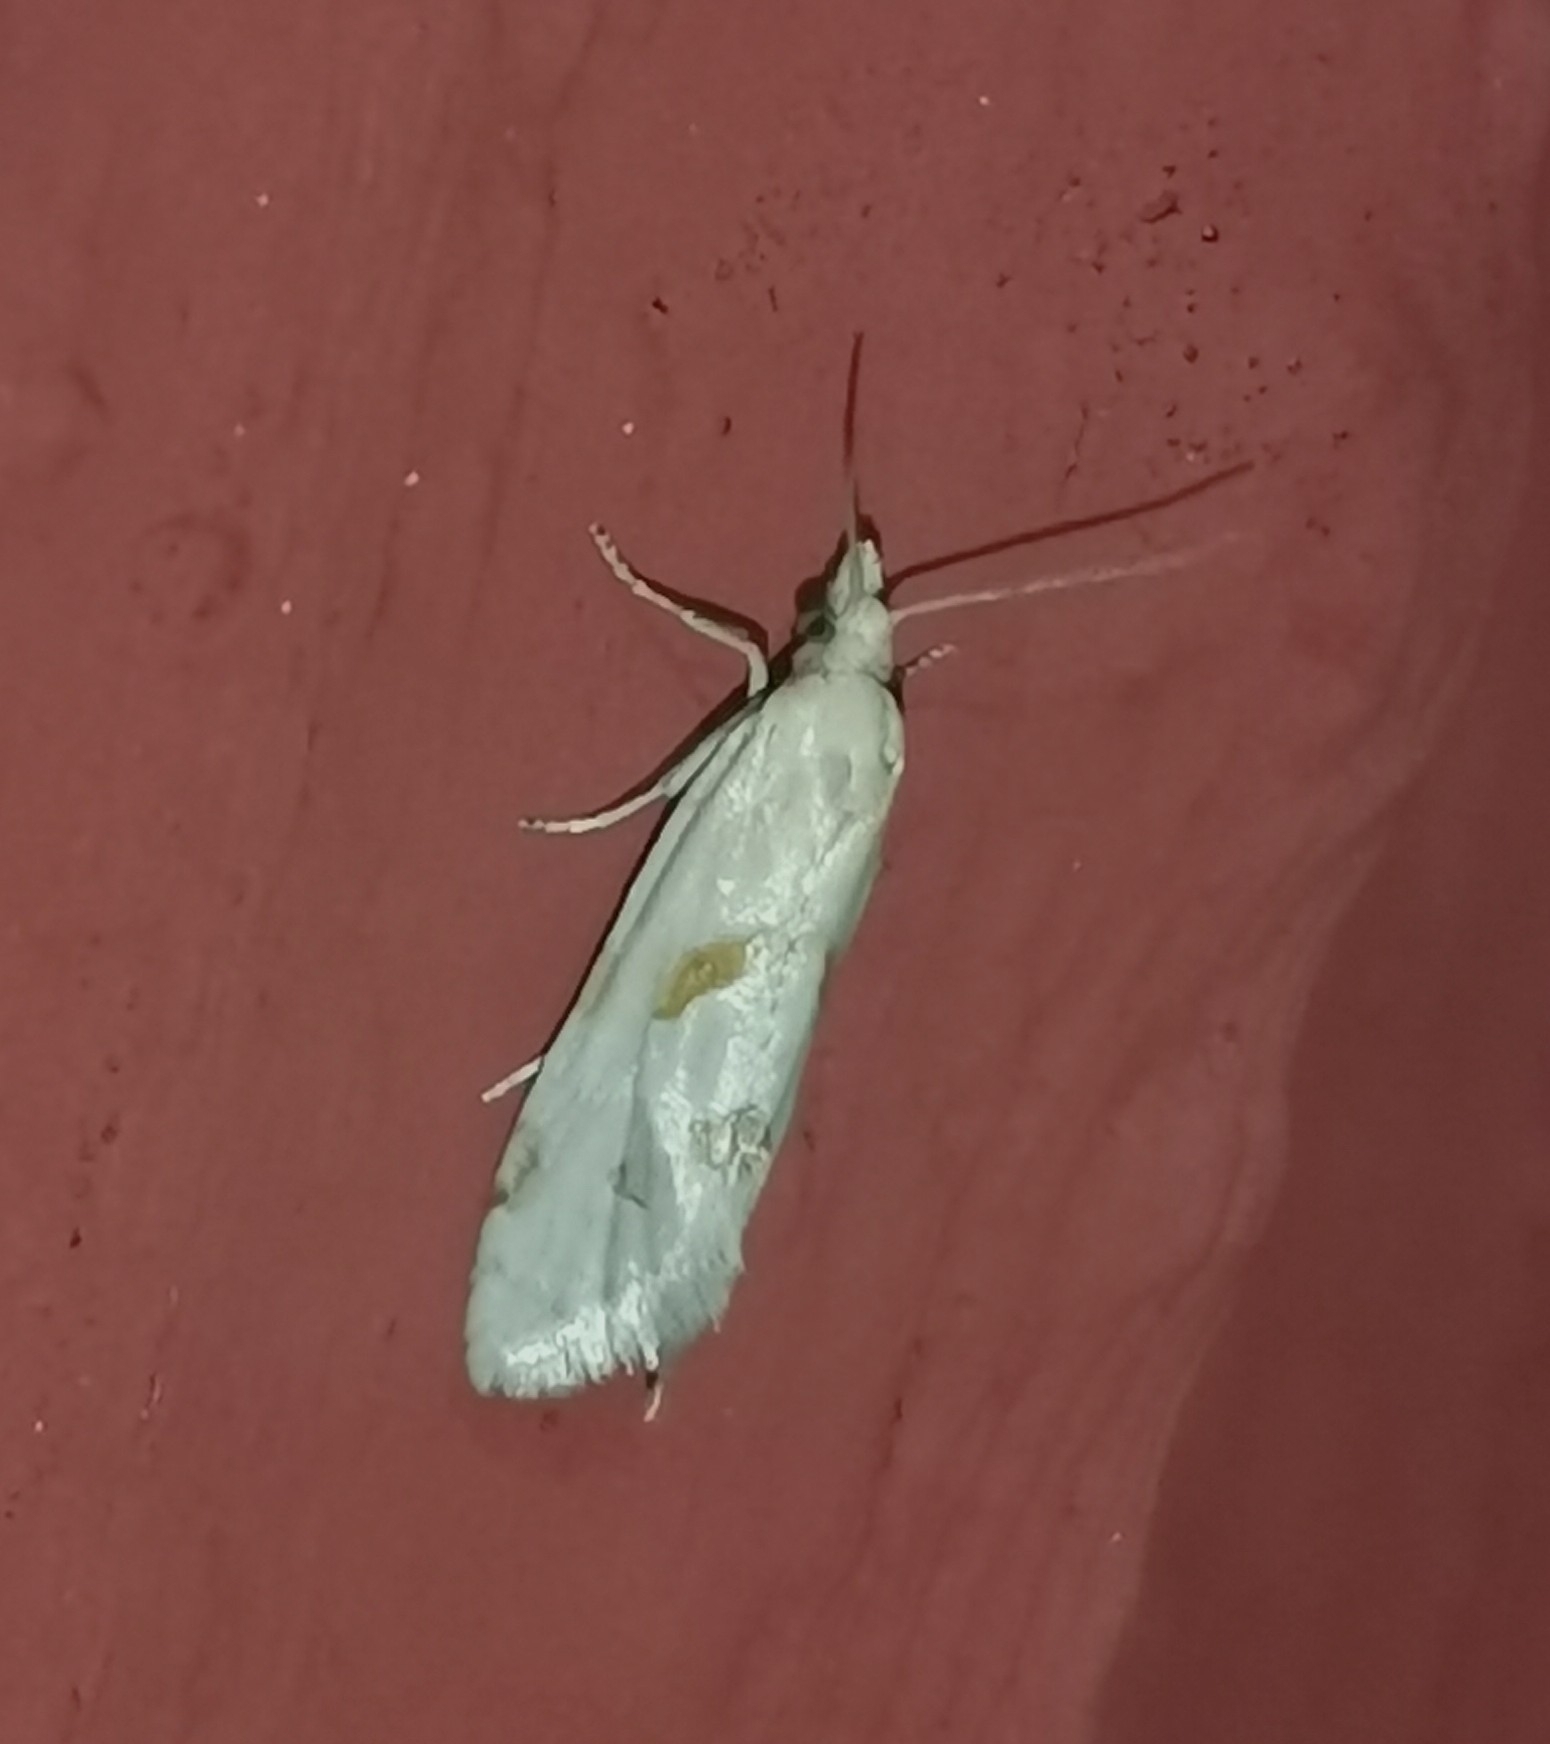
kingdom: Animalia
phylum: Arthropoda
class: Insecta
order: Lepidoptera
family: Tortricidae
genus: Aethes
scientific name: Aethes smeathmanniana
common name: Yarrow conch
